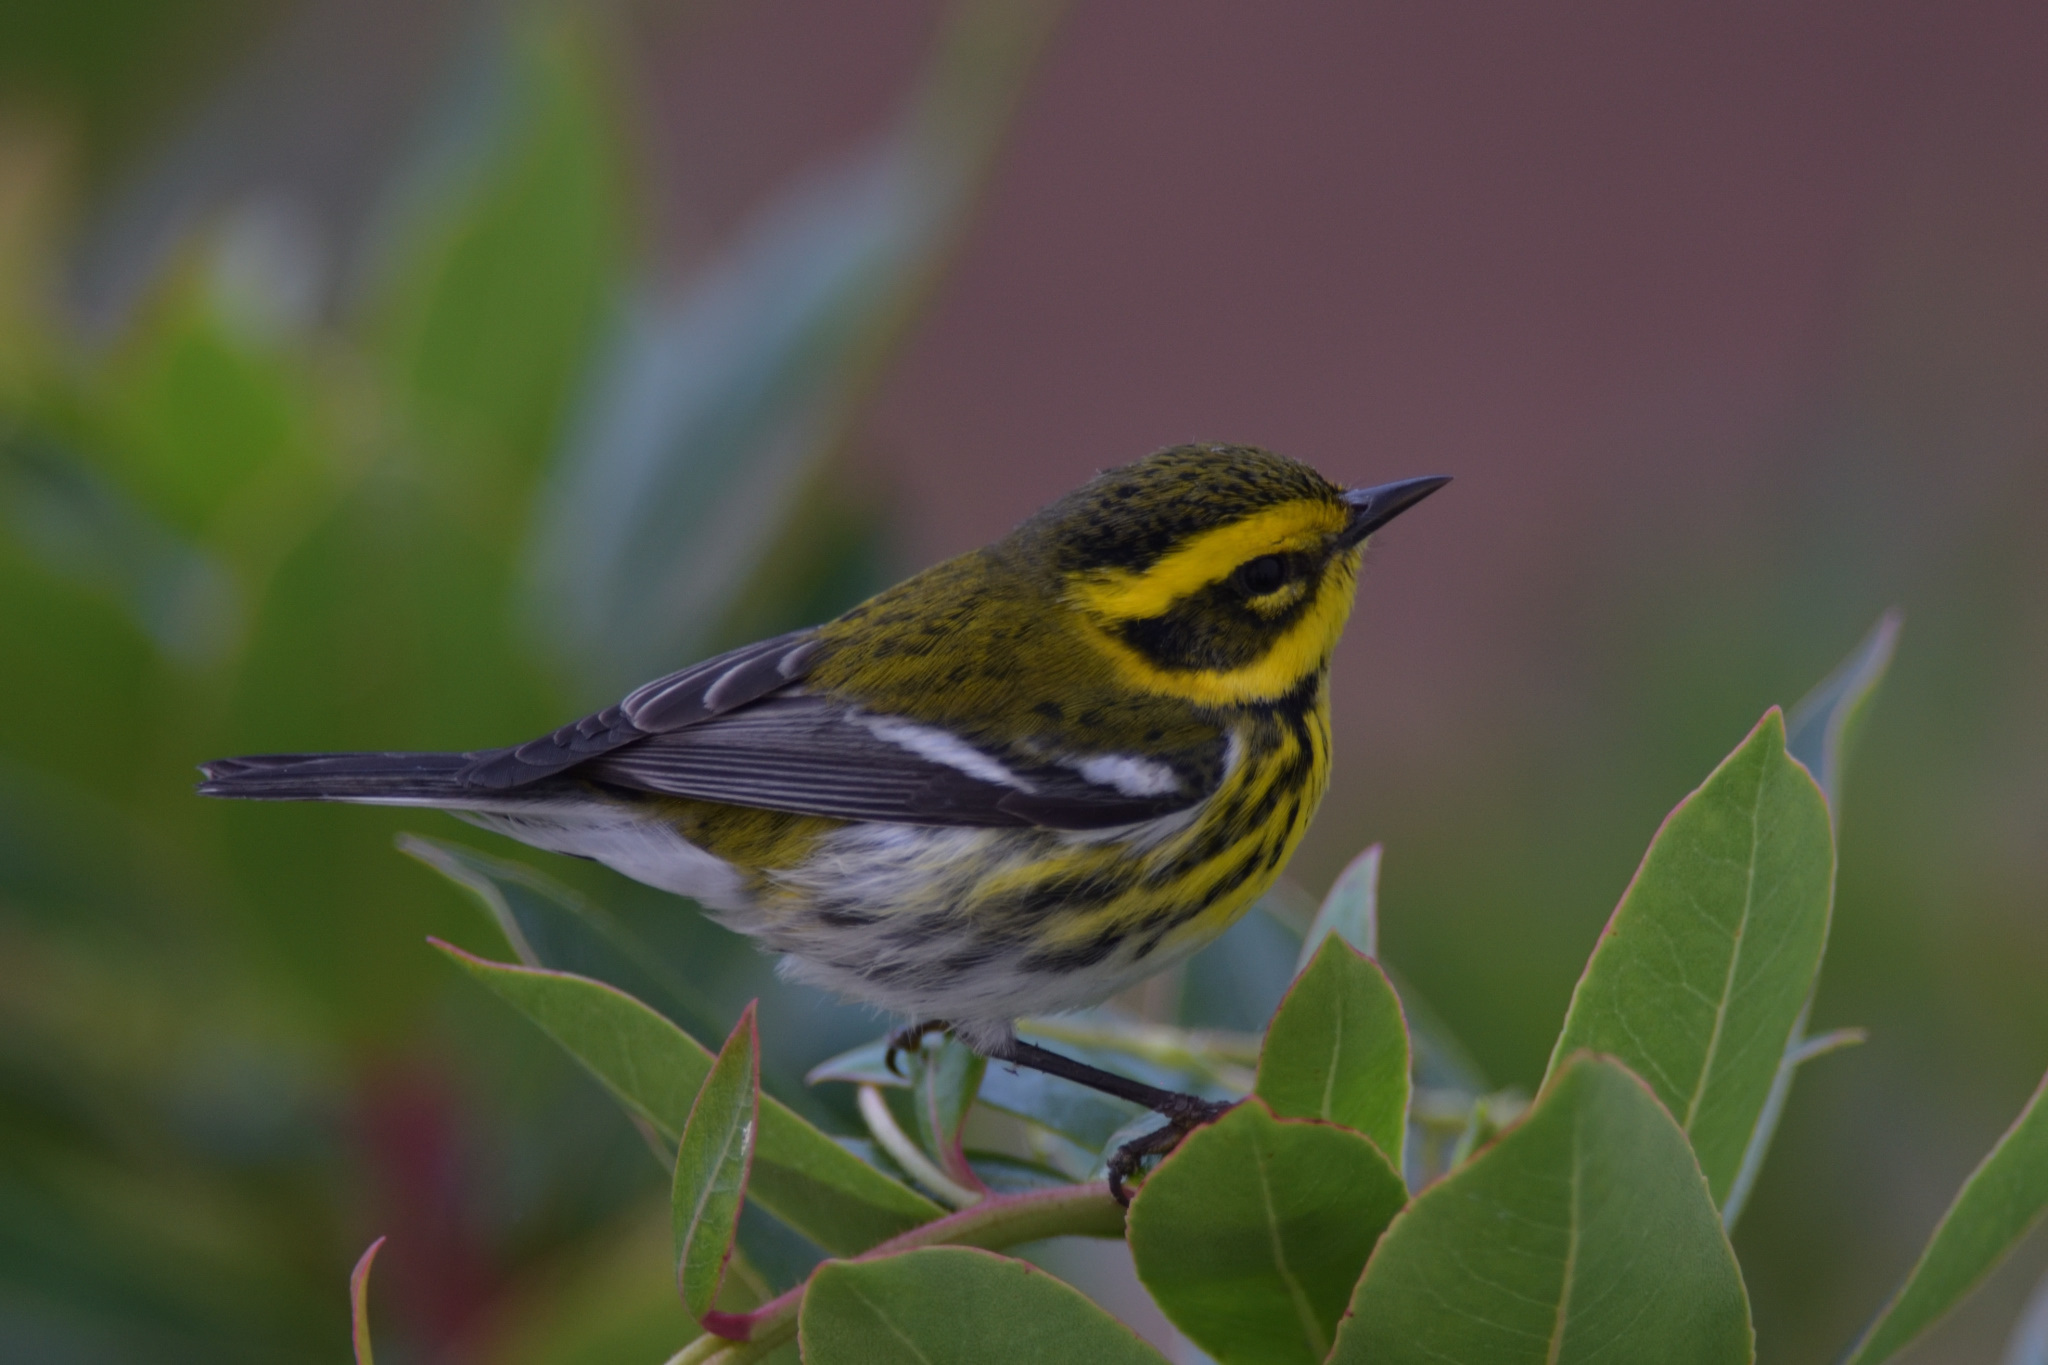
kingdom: Animalia
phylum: Chordata
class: Aves
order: Passeriformes
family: Parulidae
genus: Setophaga
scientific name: Setophaga townsendi
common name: Townsend's warbler
